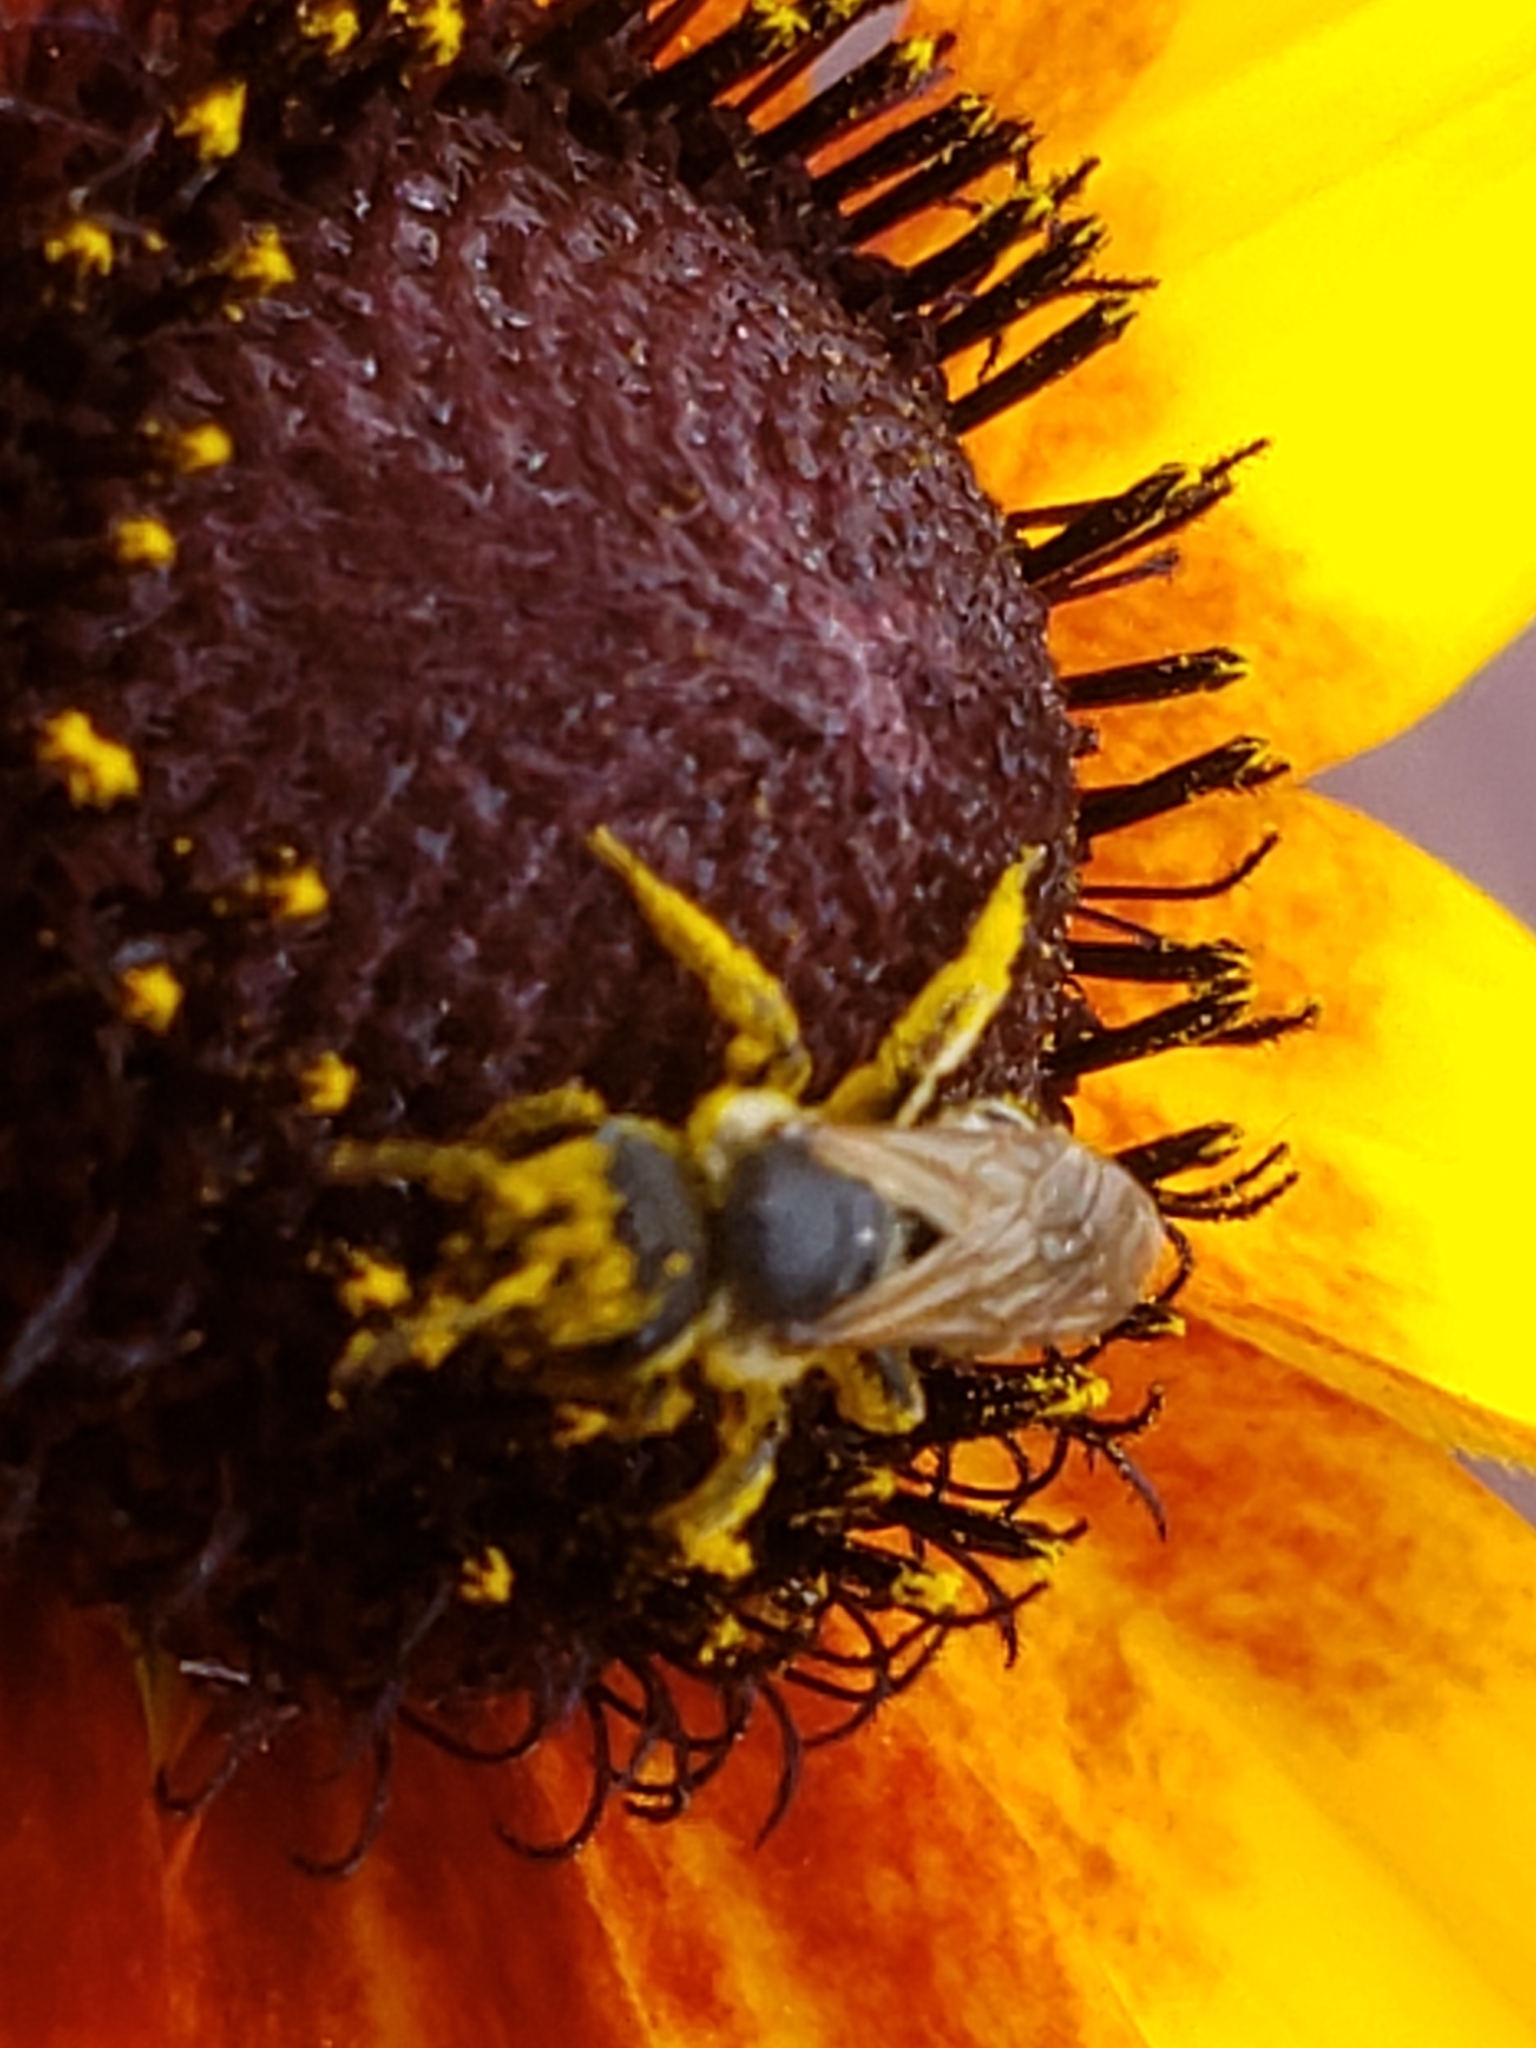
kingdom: Animalia
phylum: Arthropoda
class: Insecta
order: Hymenoptera
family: Halictidae
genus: Halictus
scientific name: Halictus ligatus
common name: Ligated furrow bee
